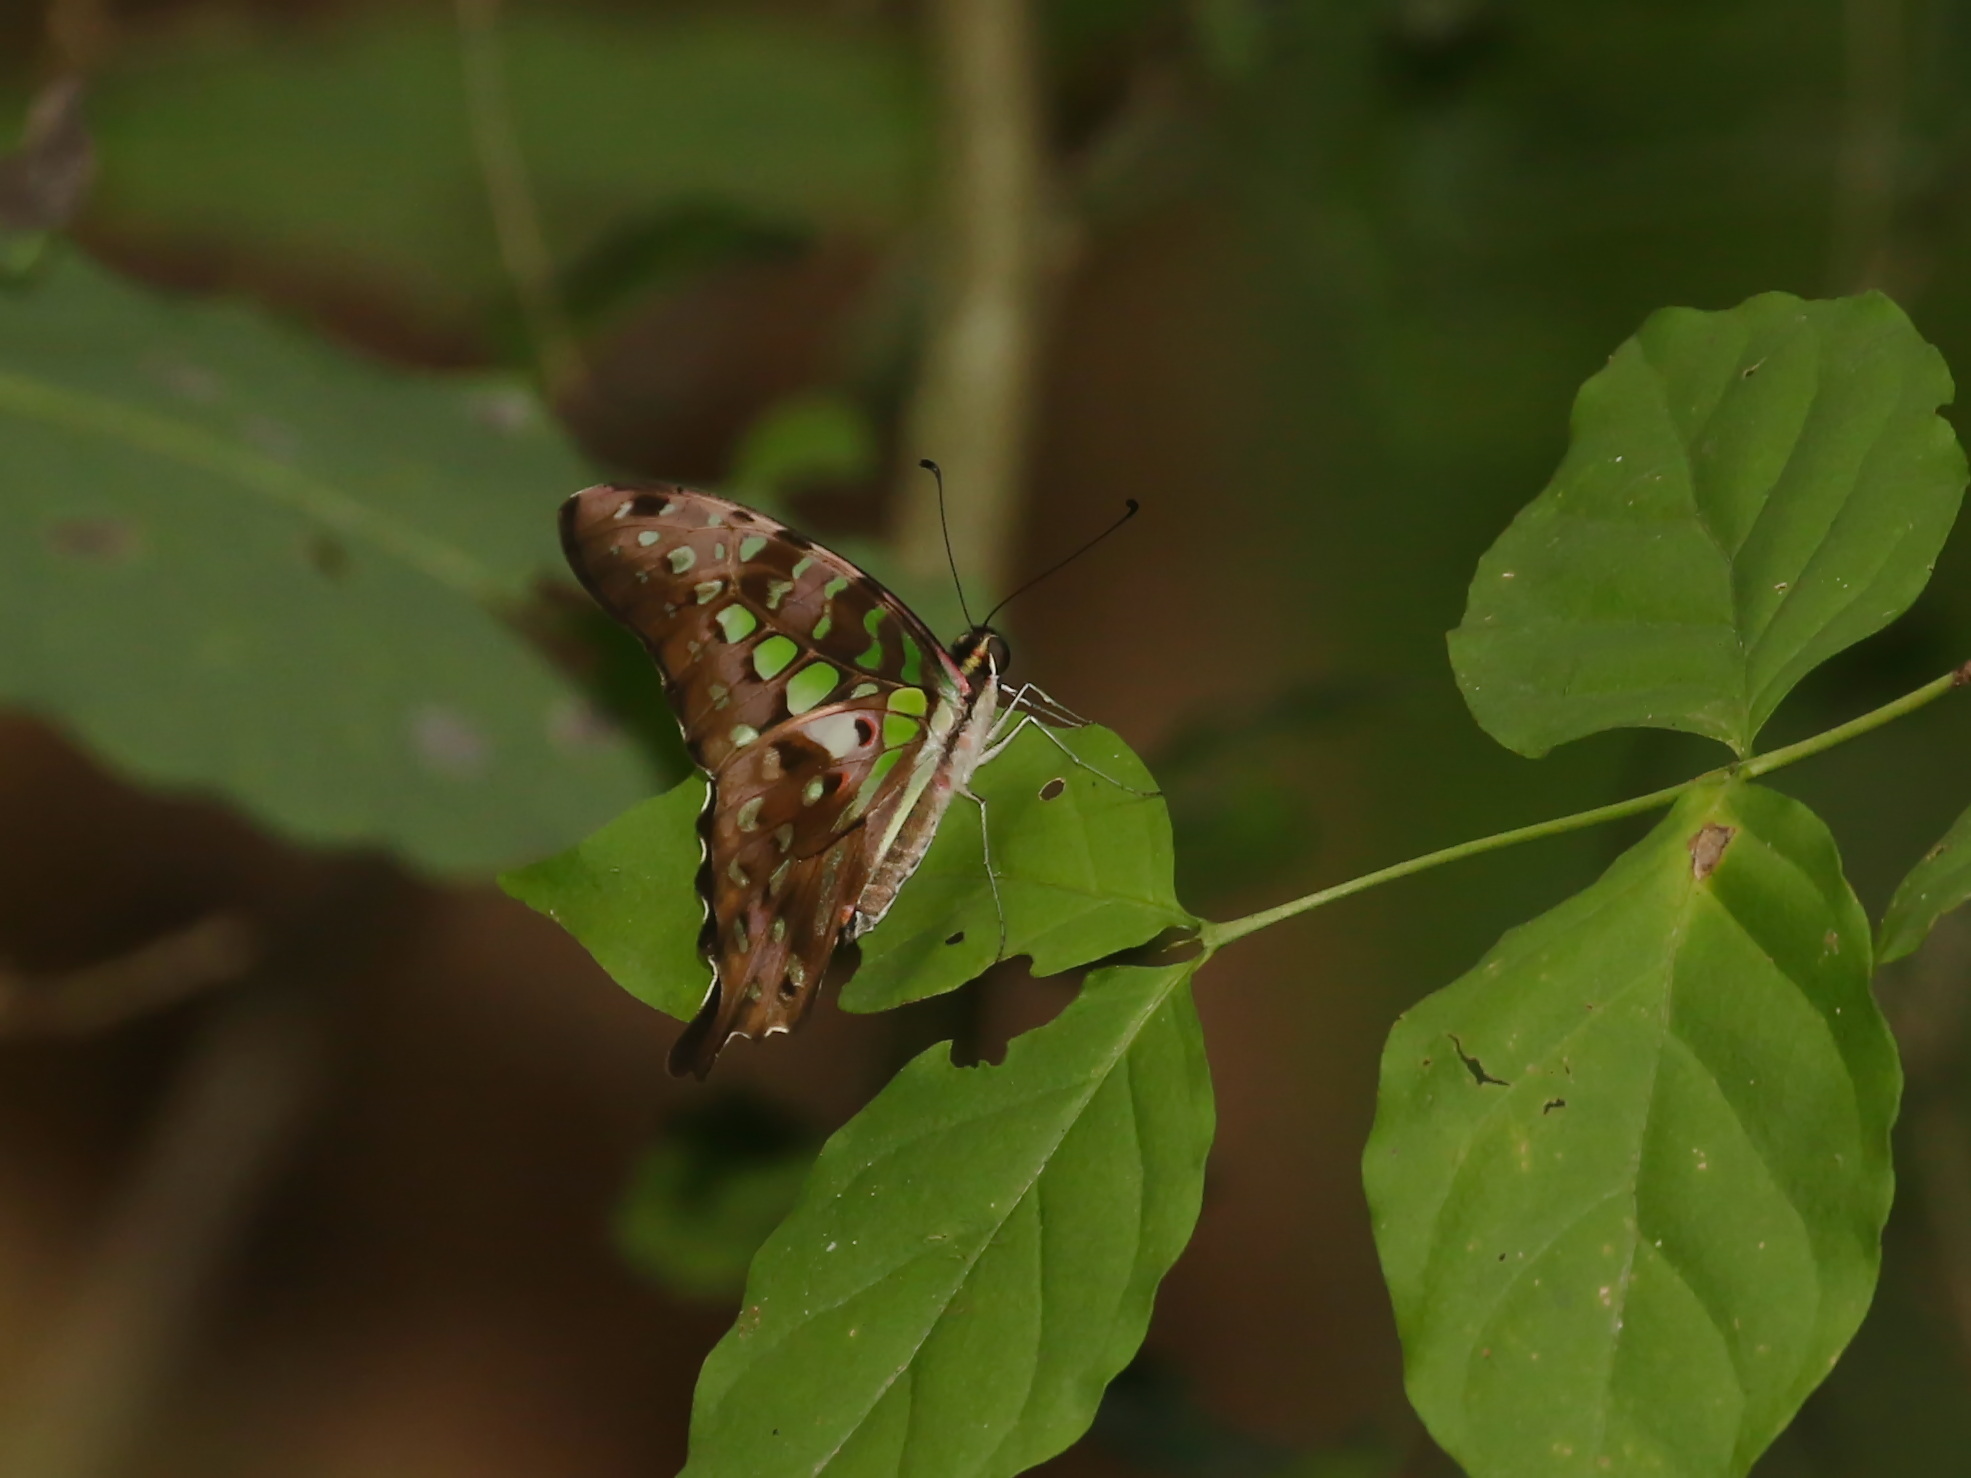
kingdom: Animalia
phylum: Arthropoda
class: Insecta
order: Lepidoptera
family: Papilionidae
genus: Graphium
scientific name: Graphium agamemnon
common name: Tailed jay
